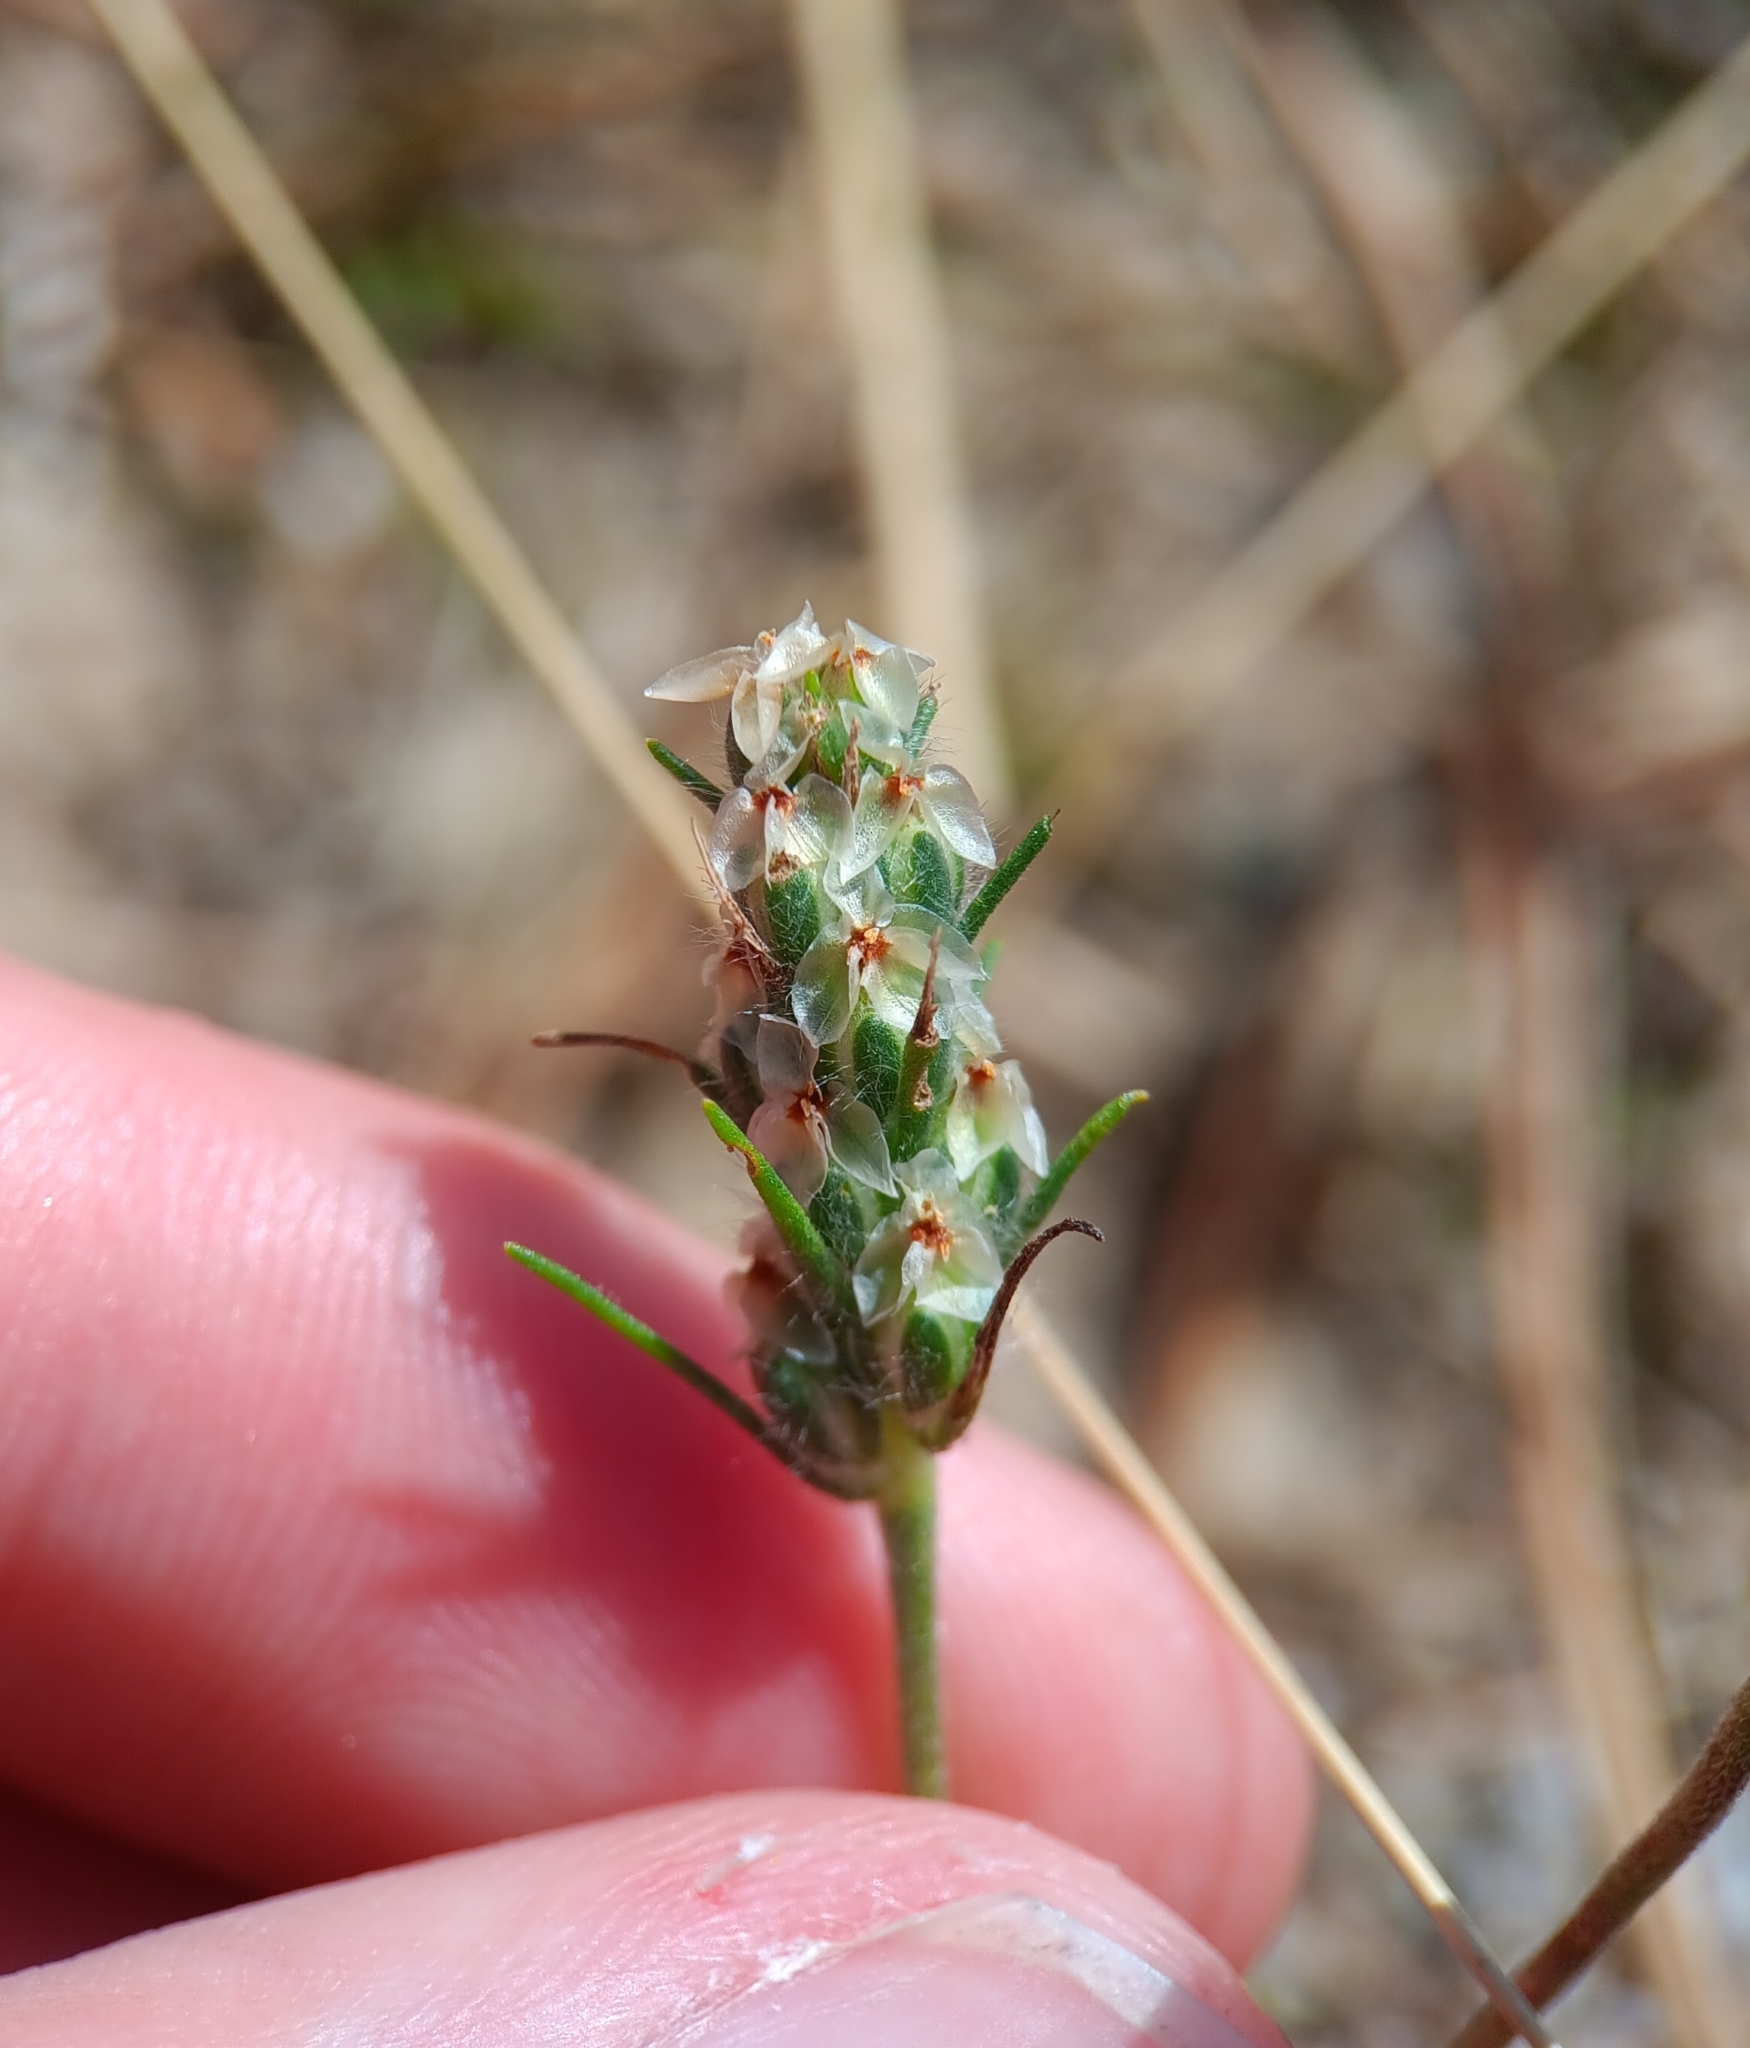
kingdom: Plantae
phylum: Tracheophyta
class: Magnoliopsida
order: Lamiales
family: Plantaginaceae
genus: Plantago
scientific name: Plantago aristata
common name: Bracted plantain
